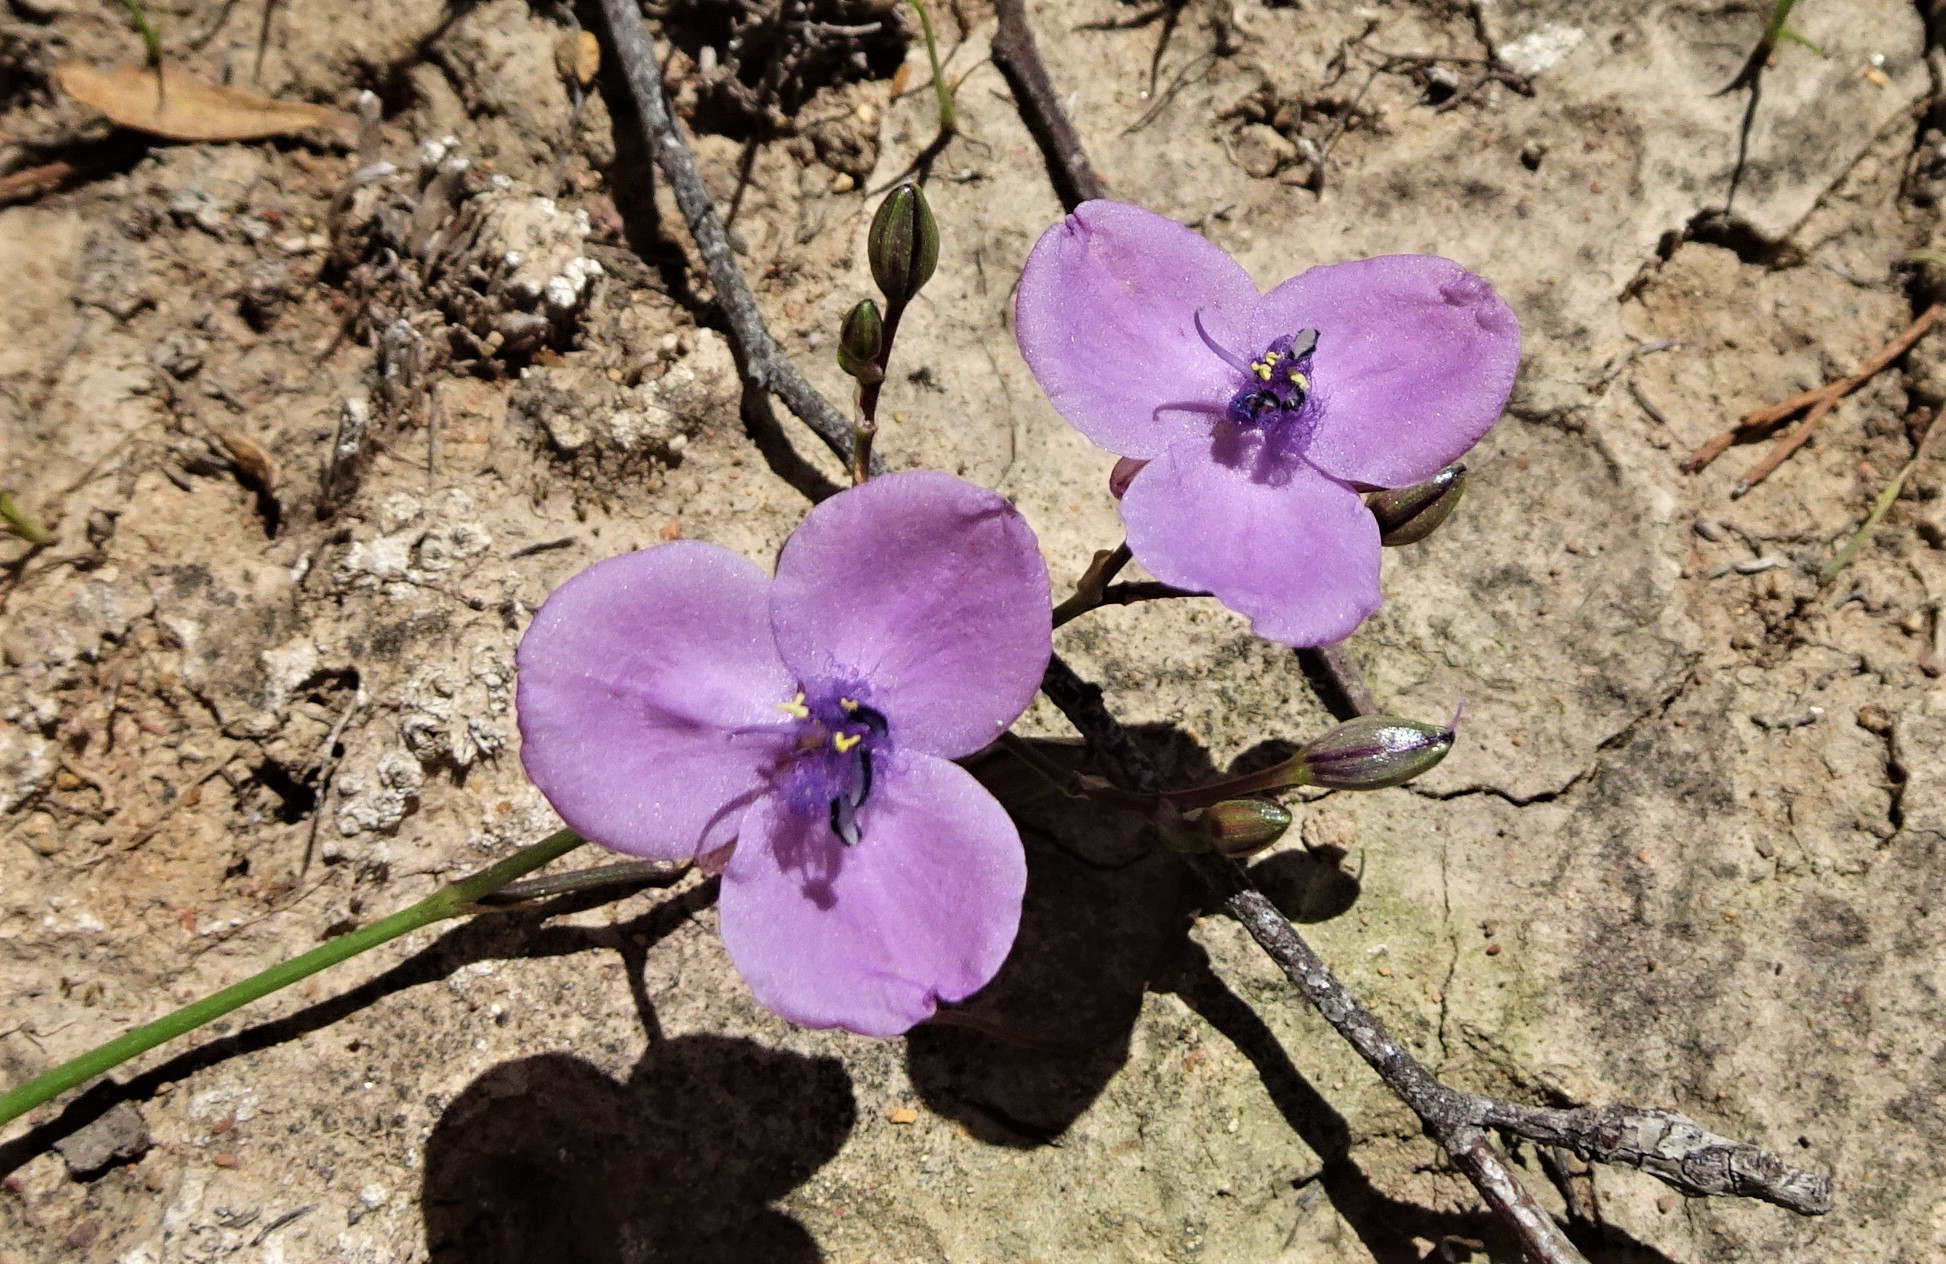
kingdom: Plantae
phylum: Tracheophyta
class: Liliopsida
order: Commelinales
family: Commelinaceae
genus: Murdannia
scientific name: Murdannia graminea
